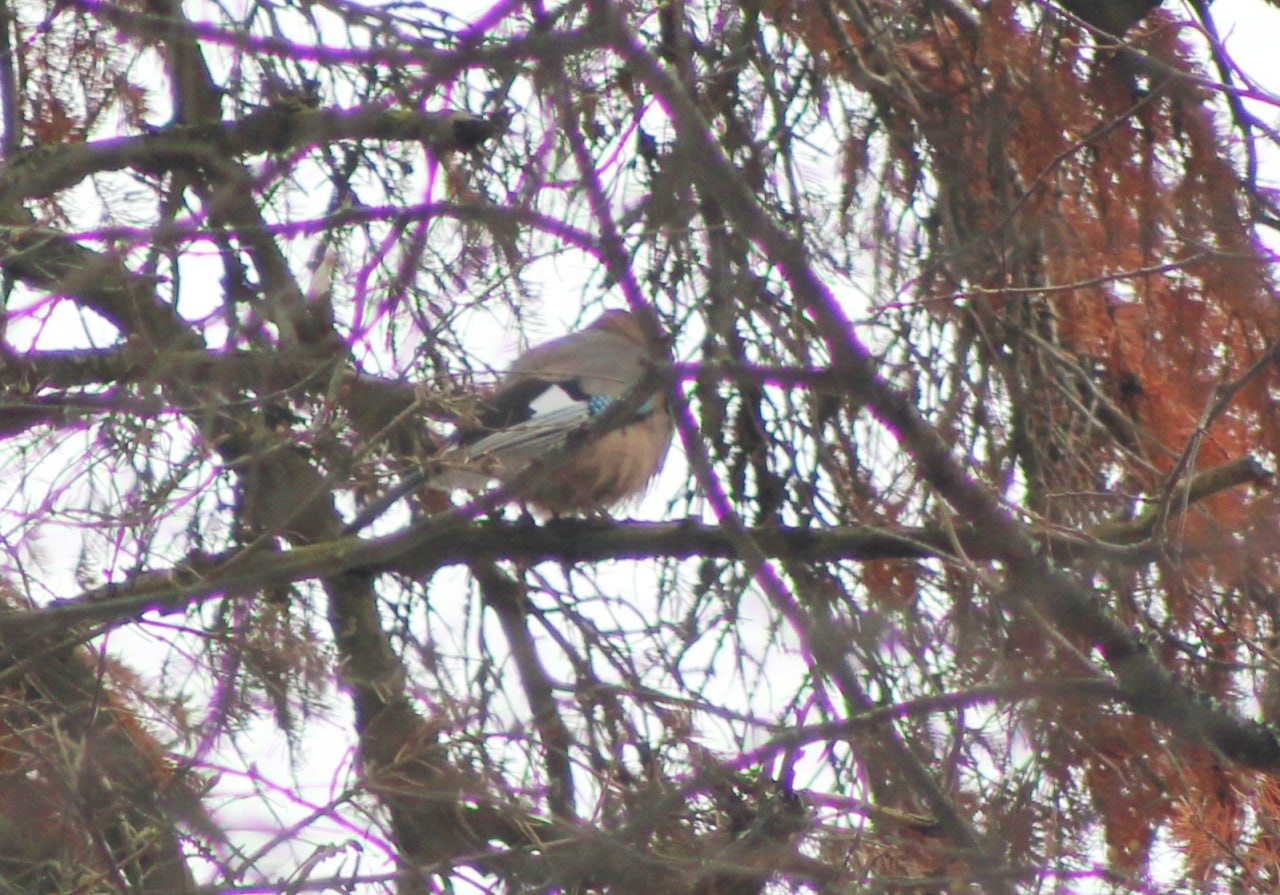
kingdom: Animalia
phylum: Chordata
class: Aves
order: Passeriformes
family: Corvidae
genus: Garrulus
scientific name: Garrulus glandarius
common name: Eurasian jay
